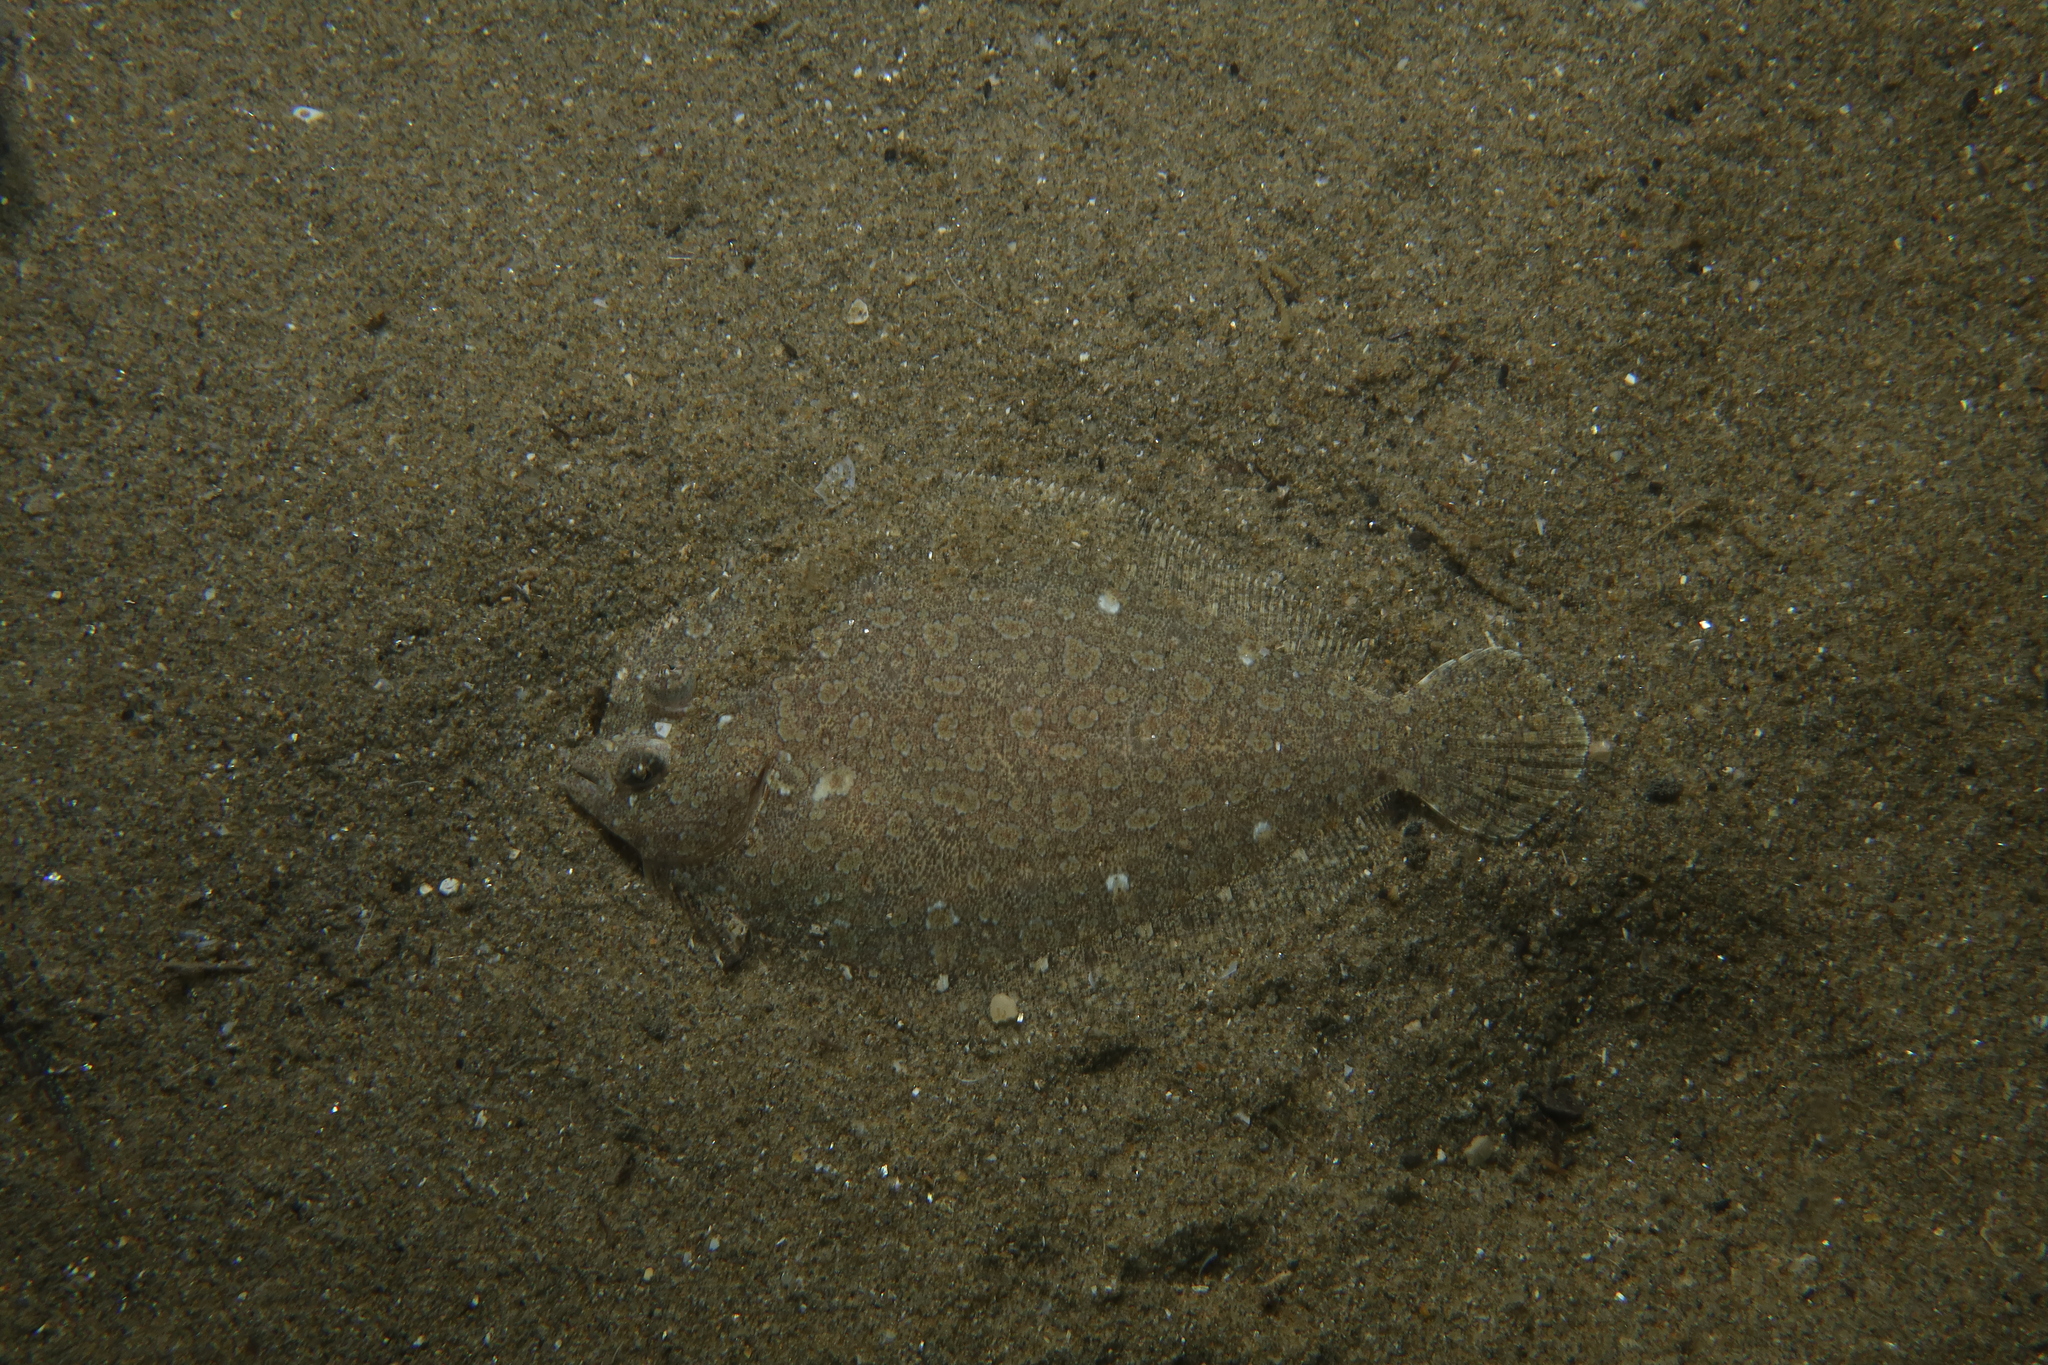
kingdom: Animalia
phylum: Chordata
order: Pleuronectiformes
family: Bothidae
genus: Bothus
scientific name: Bothus podas
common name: Wide-eyed flounder
